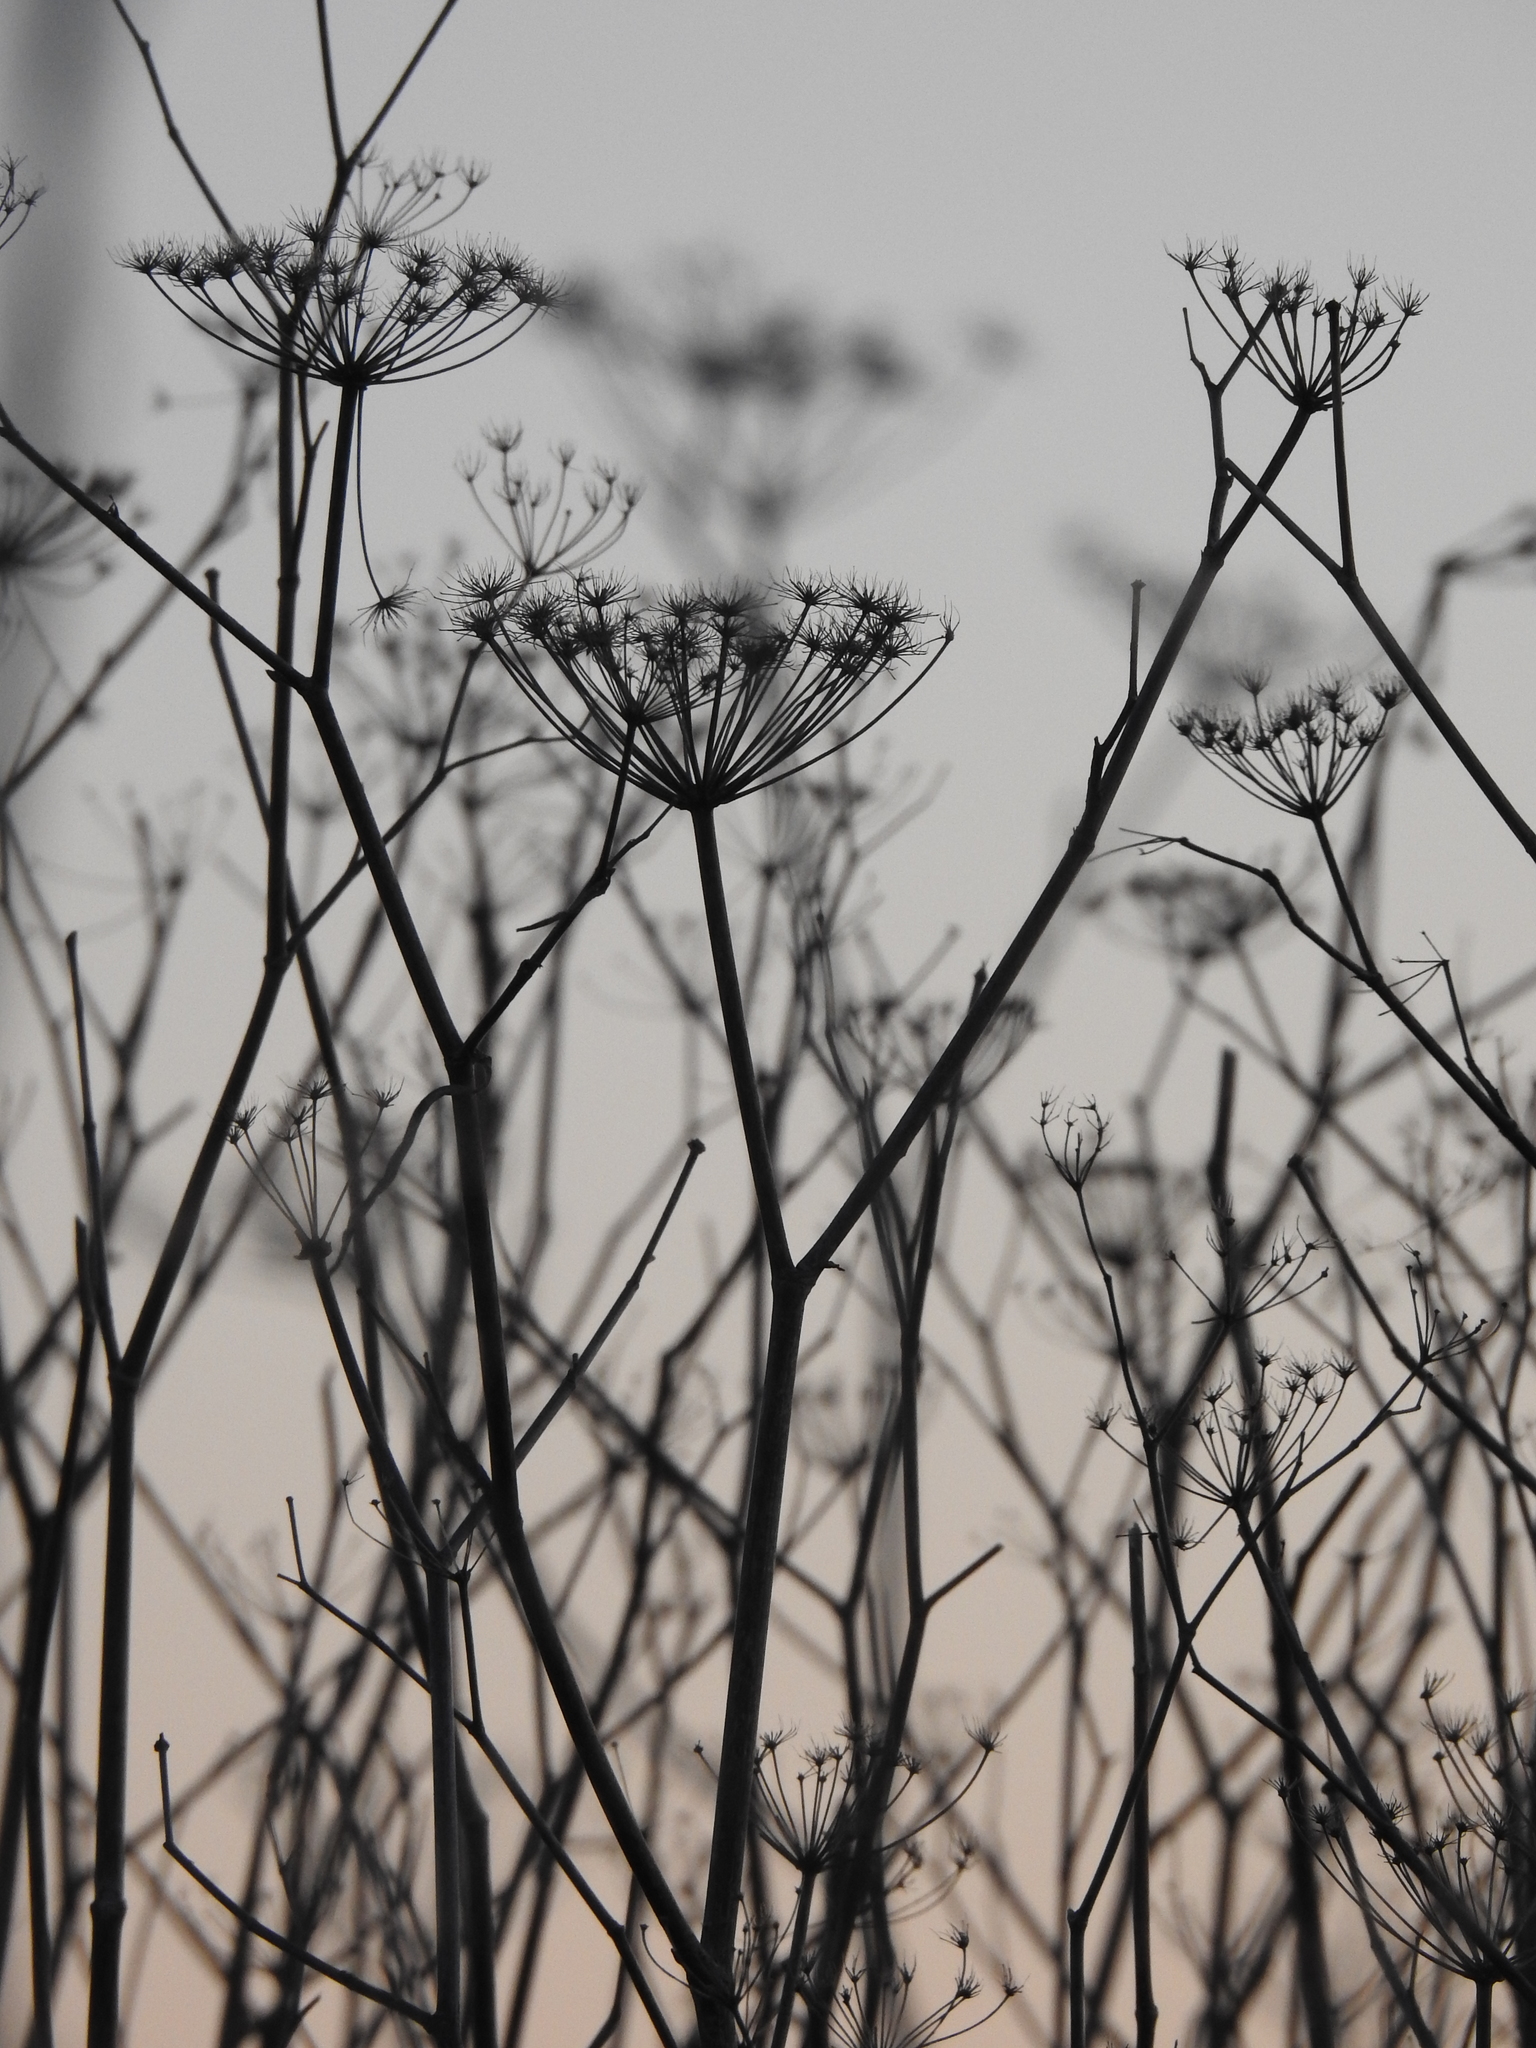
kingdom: Plantae
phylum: Tracheophyta
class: Magnoliopsida
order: Apiales
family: Apiaceae
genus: Foeniculum
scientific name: Foeniculum vulgare
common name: Fennel
